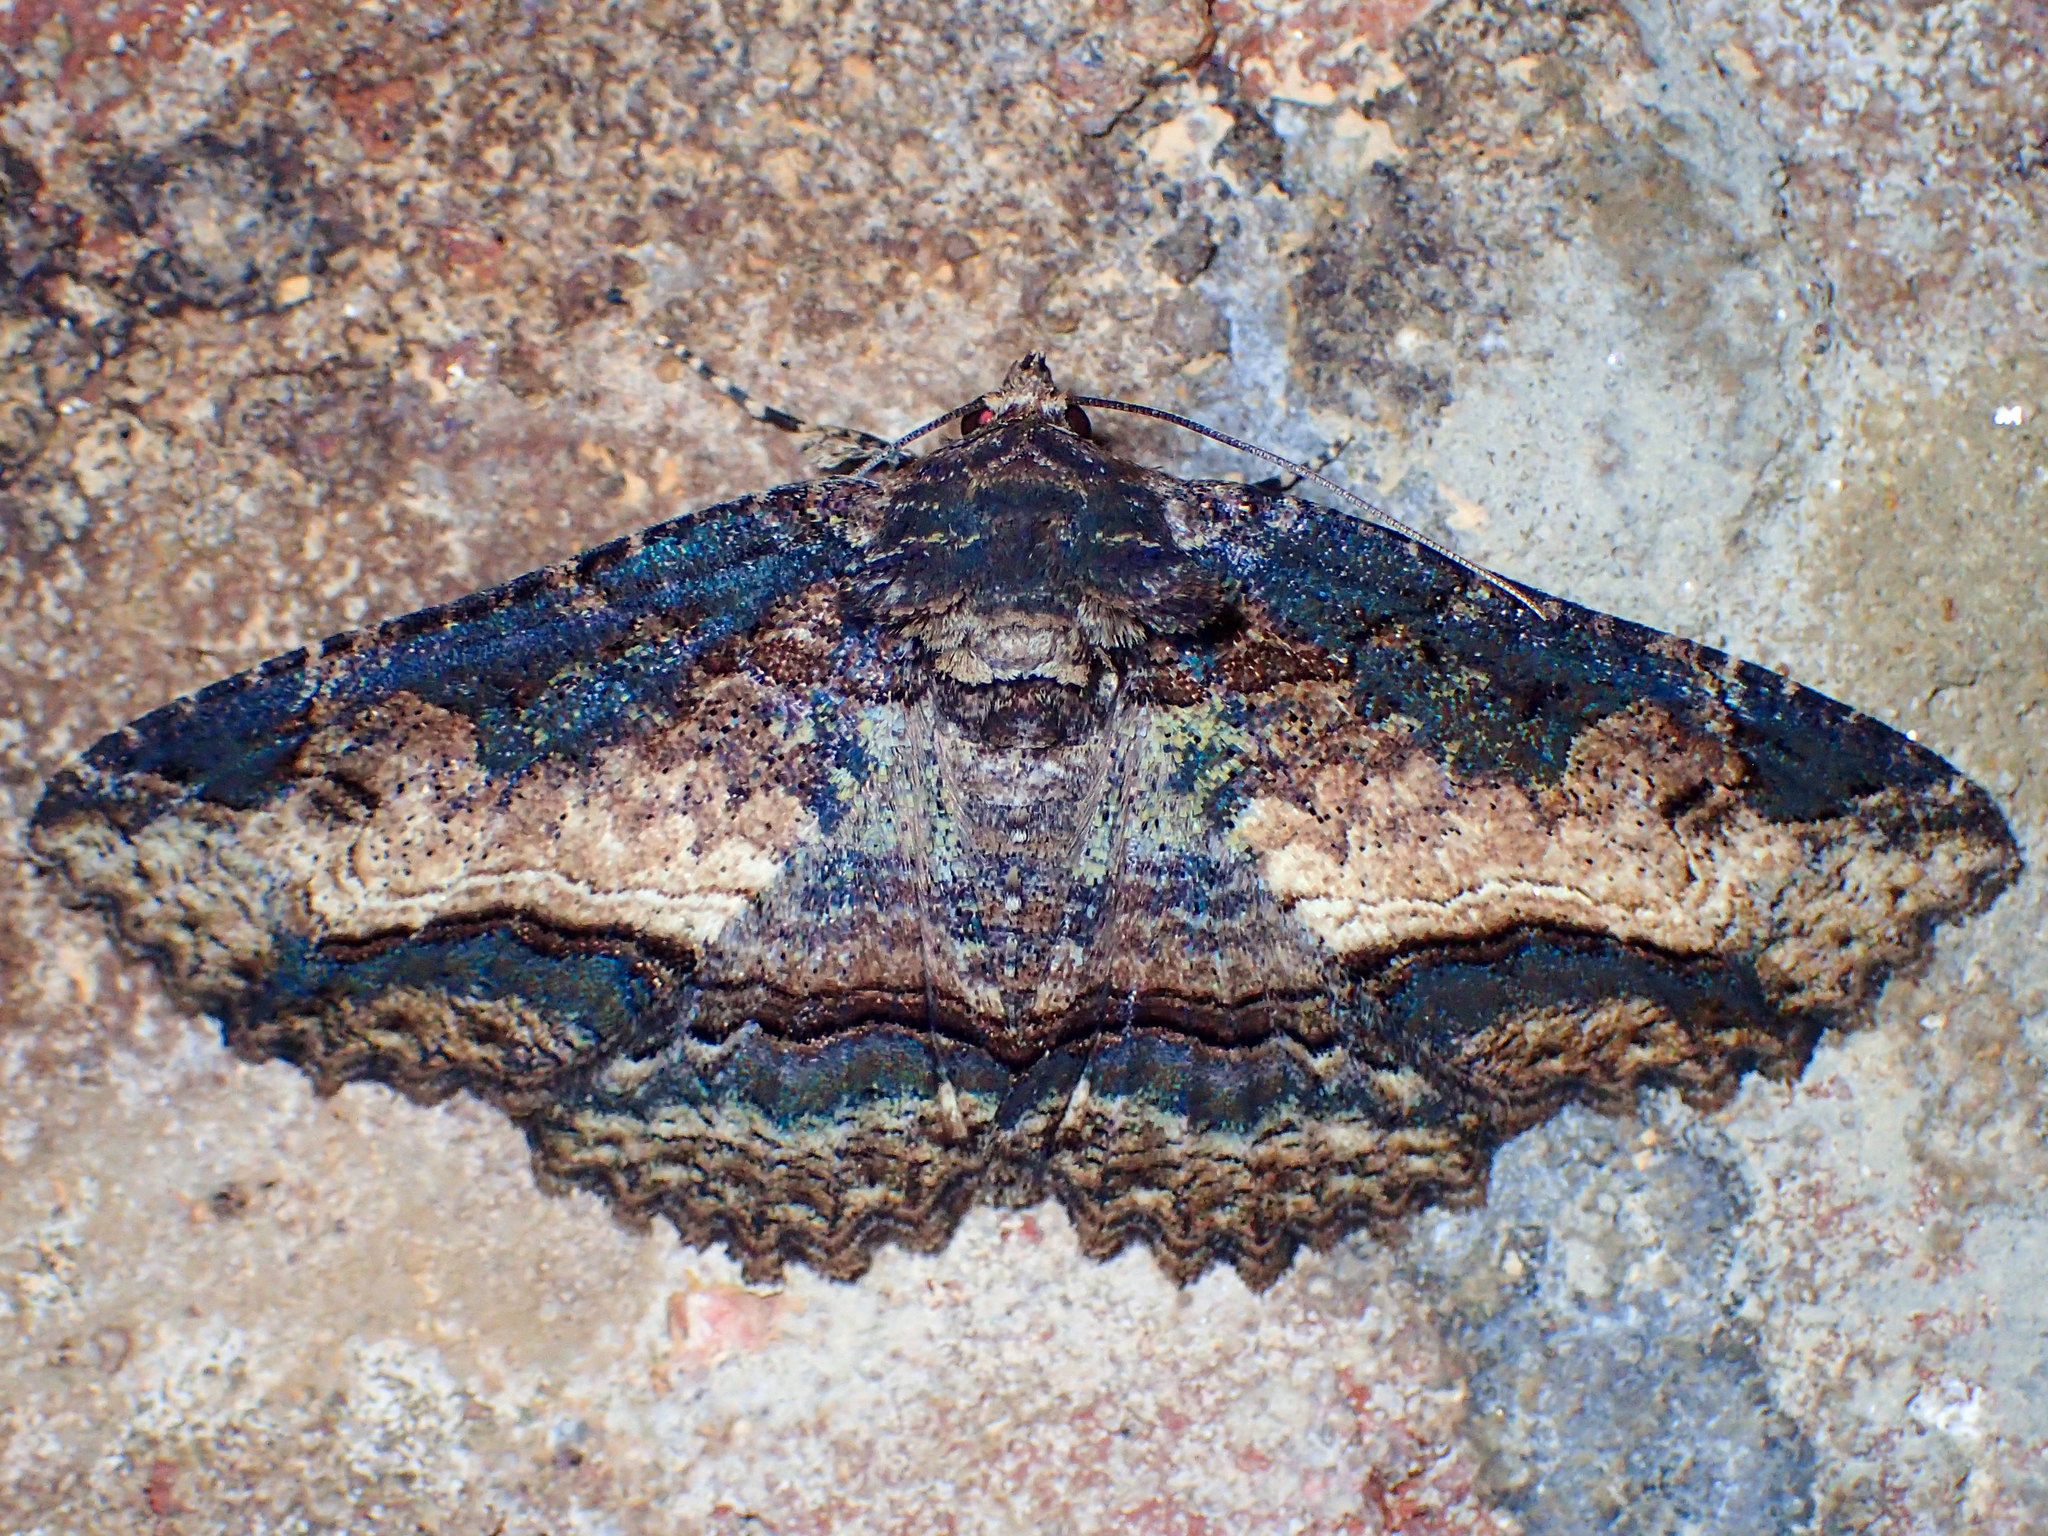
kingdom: Animalia
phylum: Arthropoda
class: Insecta
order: Lepidoptera
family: Erebidae
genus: Zale
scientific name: Zale minerea
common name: Colorful zale moth
